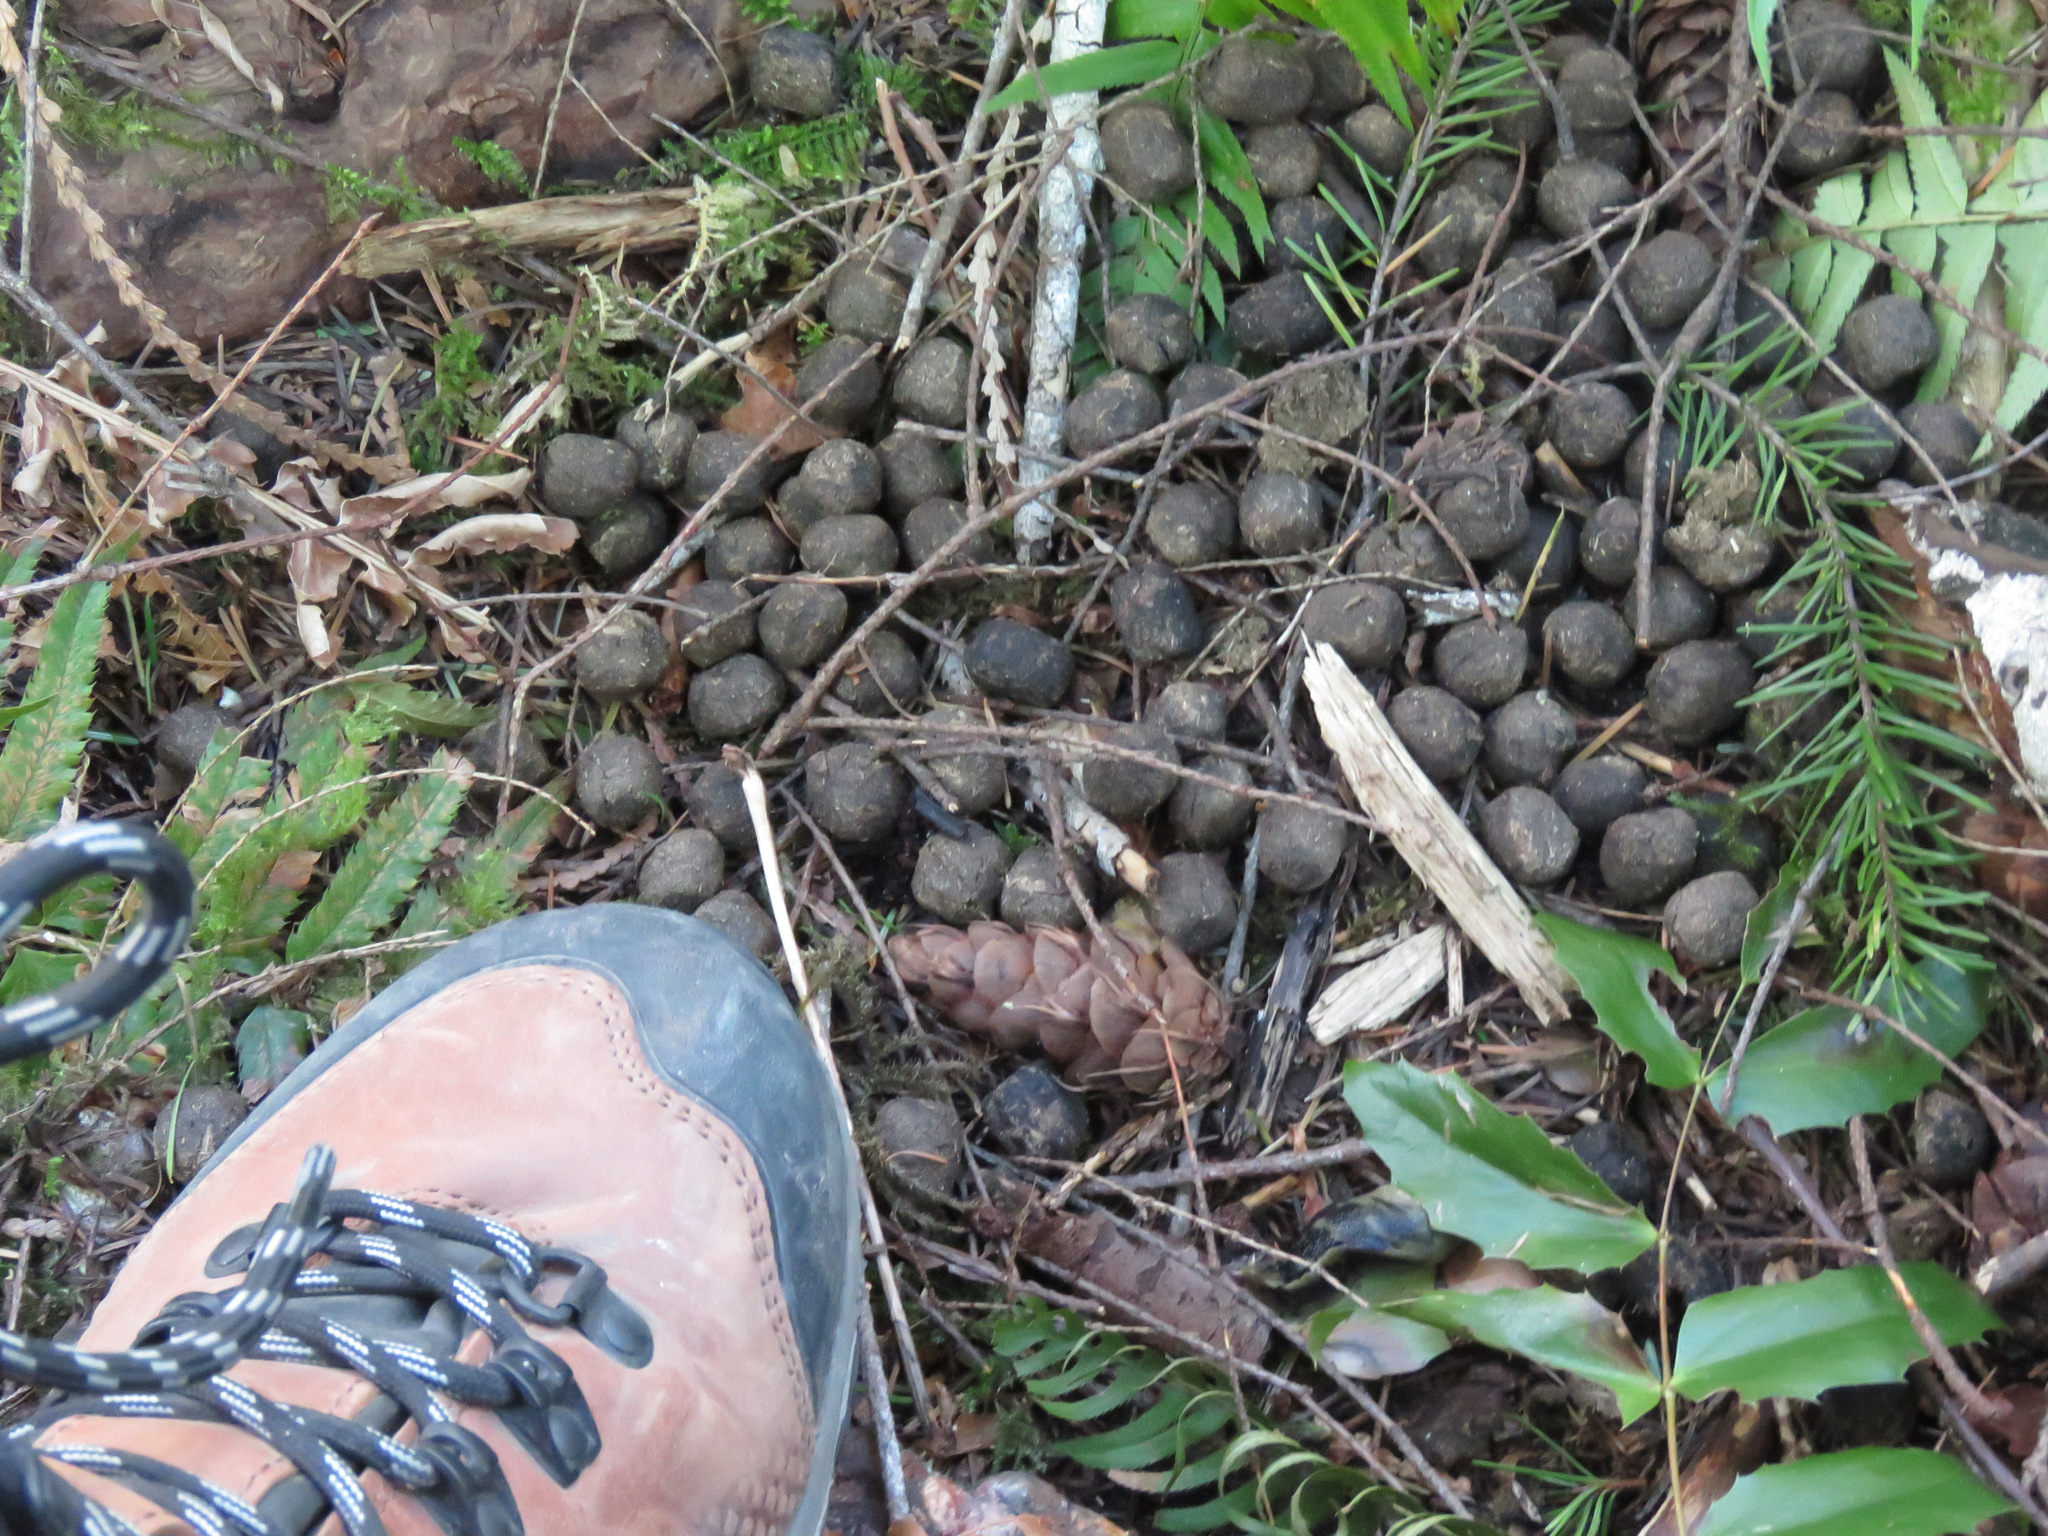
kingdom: Animalia
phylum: Chordata
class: Mammalia
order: Artiodactyla
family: Cervidae
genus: Cervus
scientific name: Cervus elaphus
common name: Red deer
